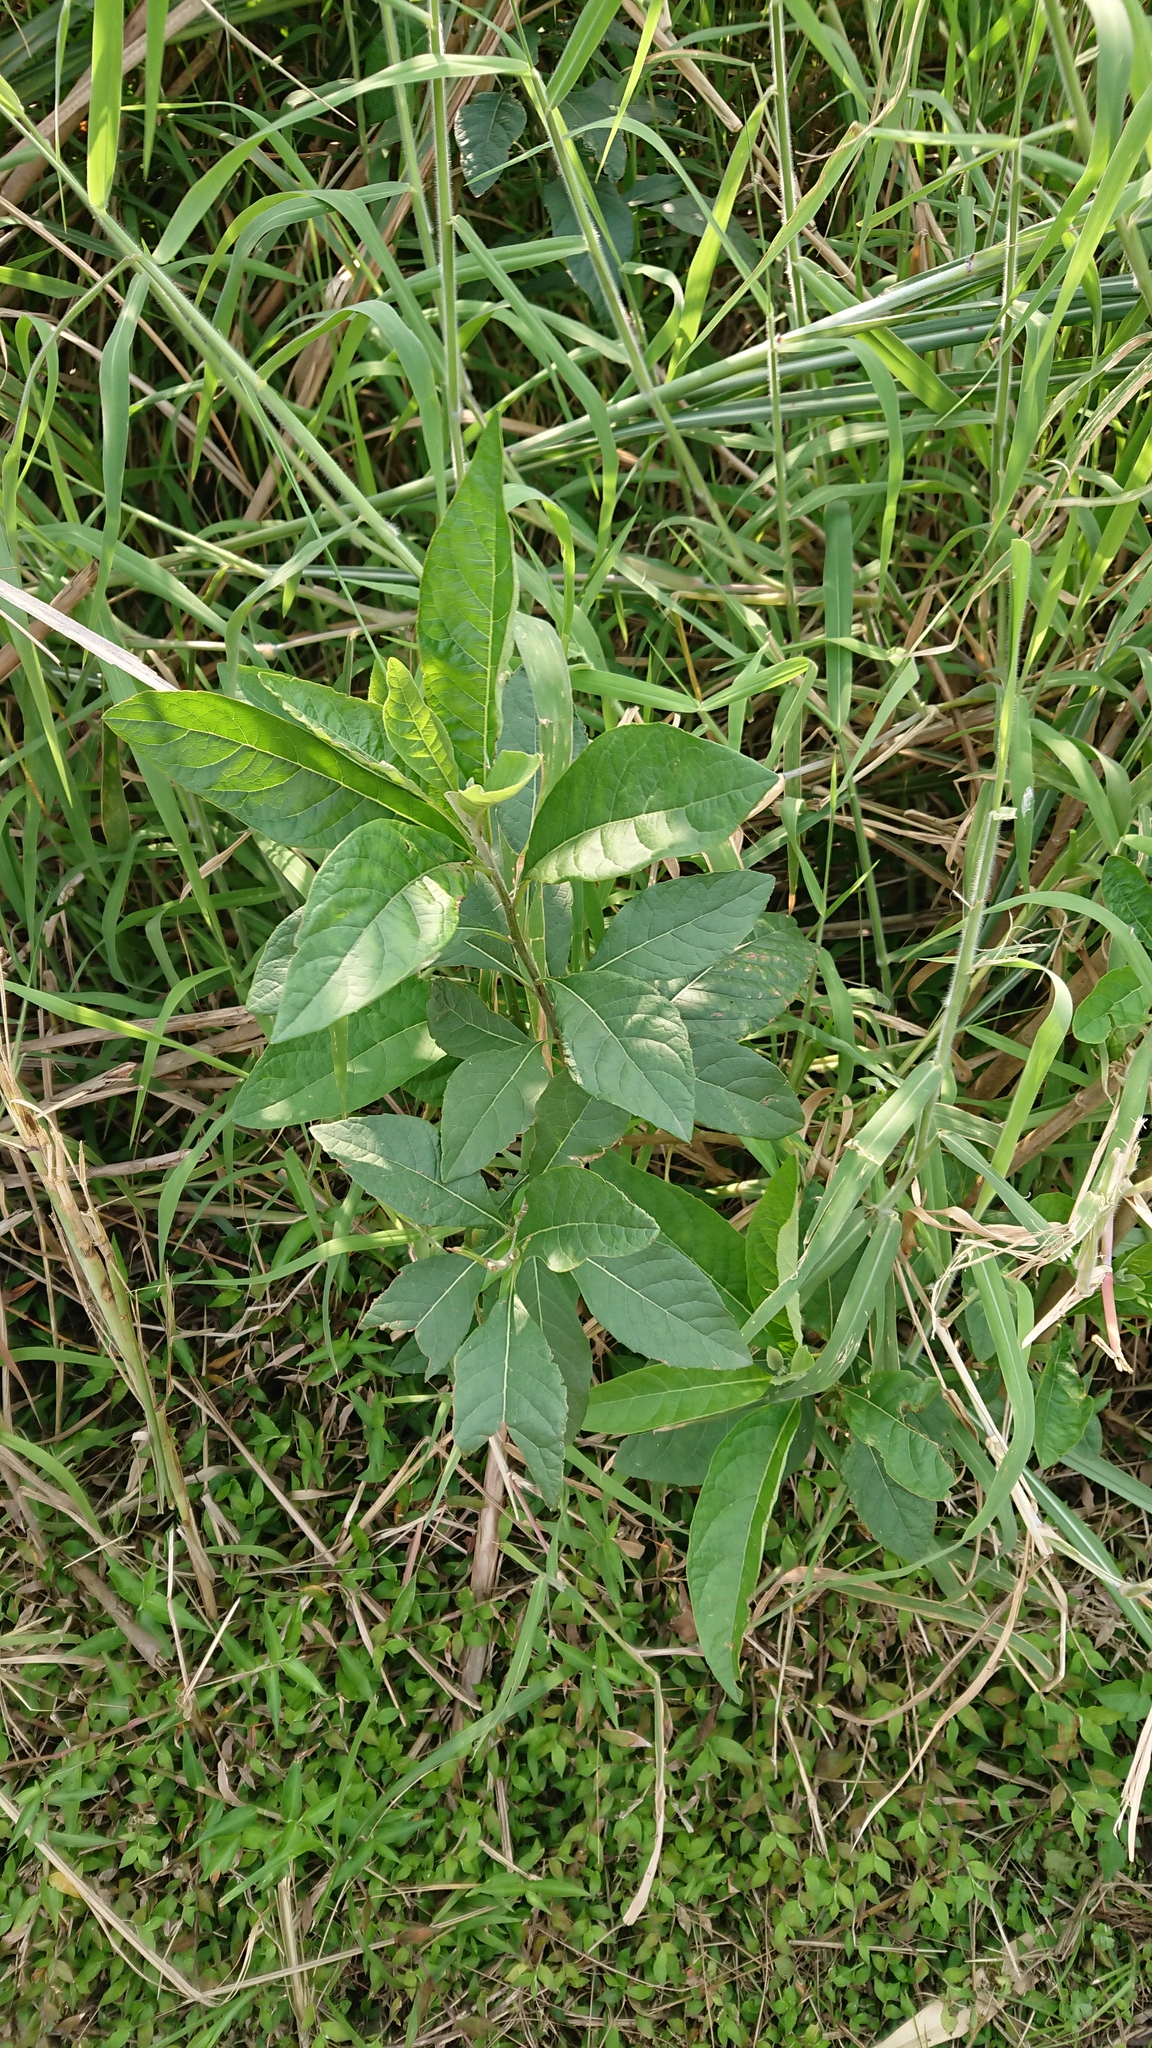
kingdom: Plantae
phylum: Tracheophyta
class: Magnoliopsida
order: Asterales
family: Asteraceae
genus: Gymnanthemum
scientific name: Gymnanthemum amygdalinum
